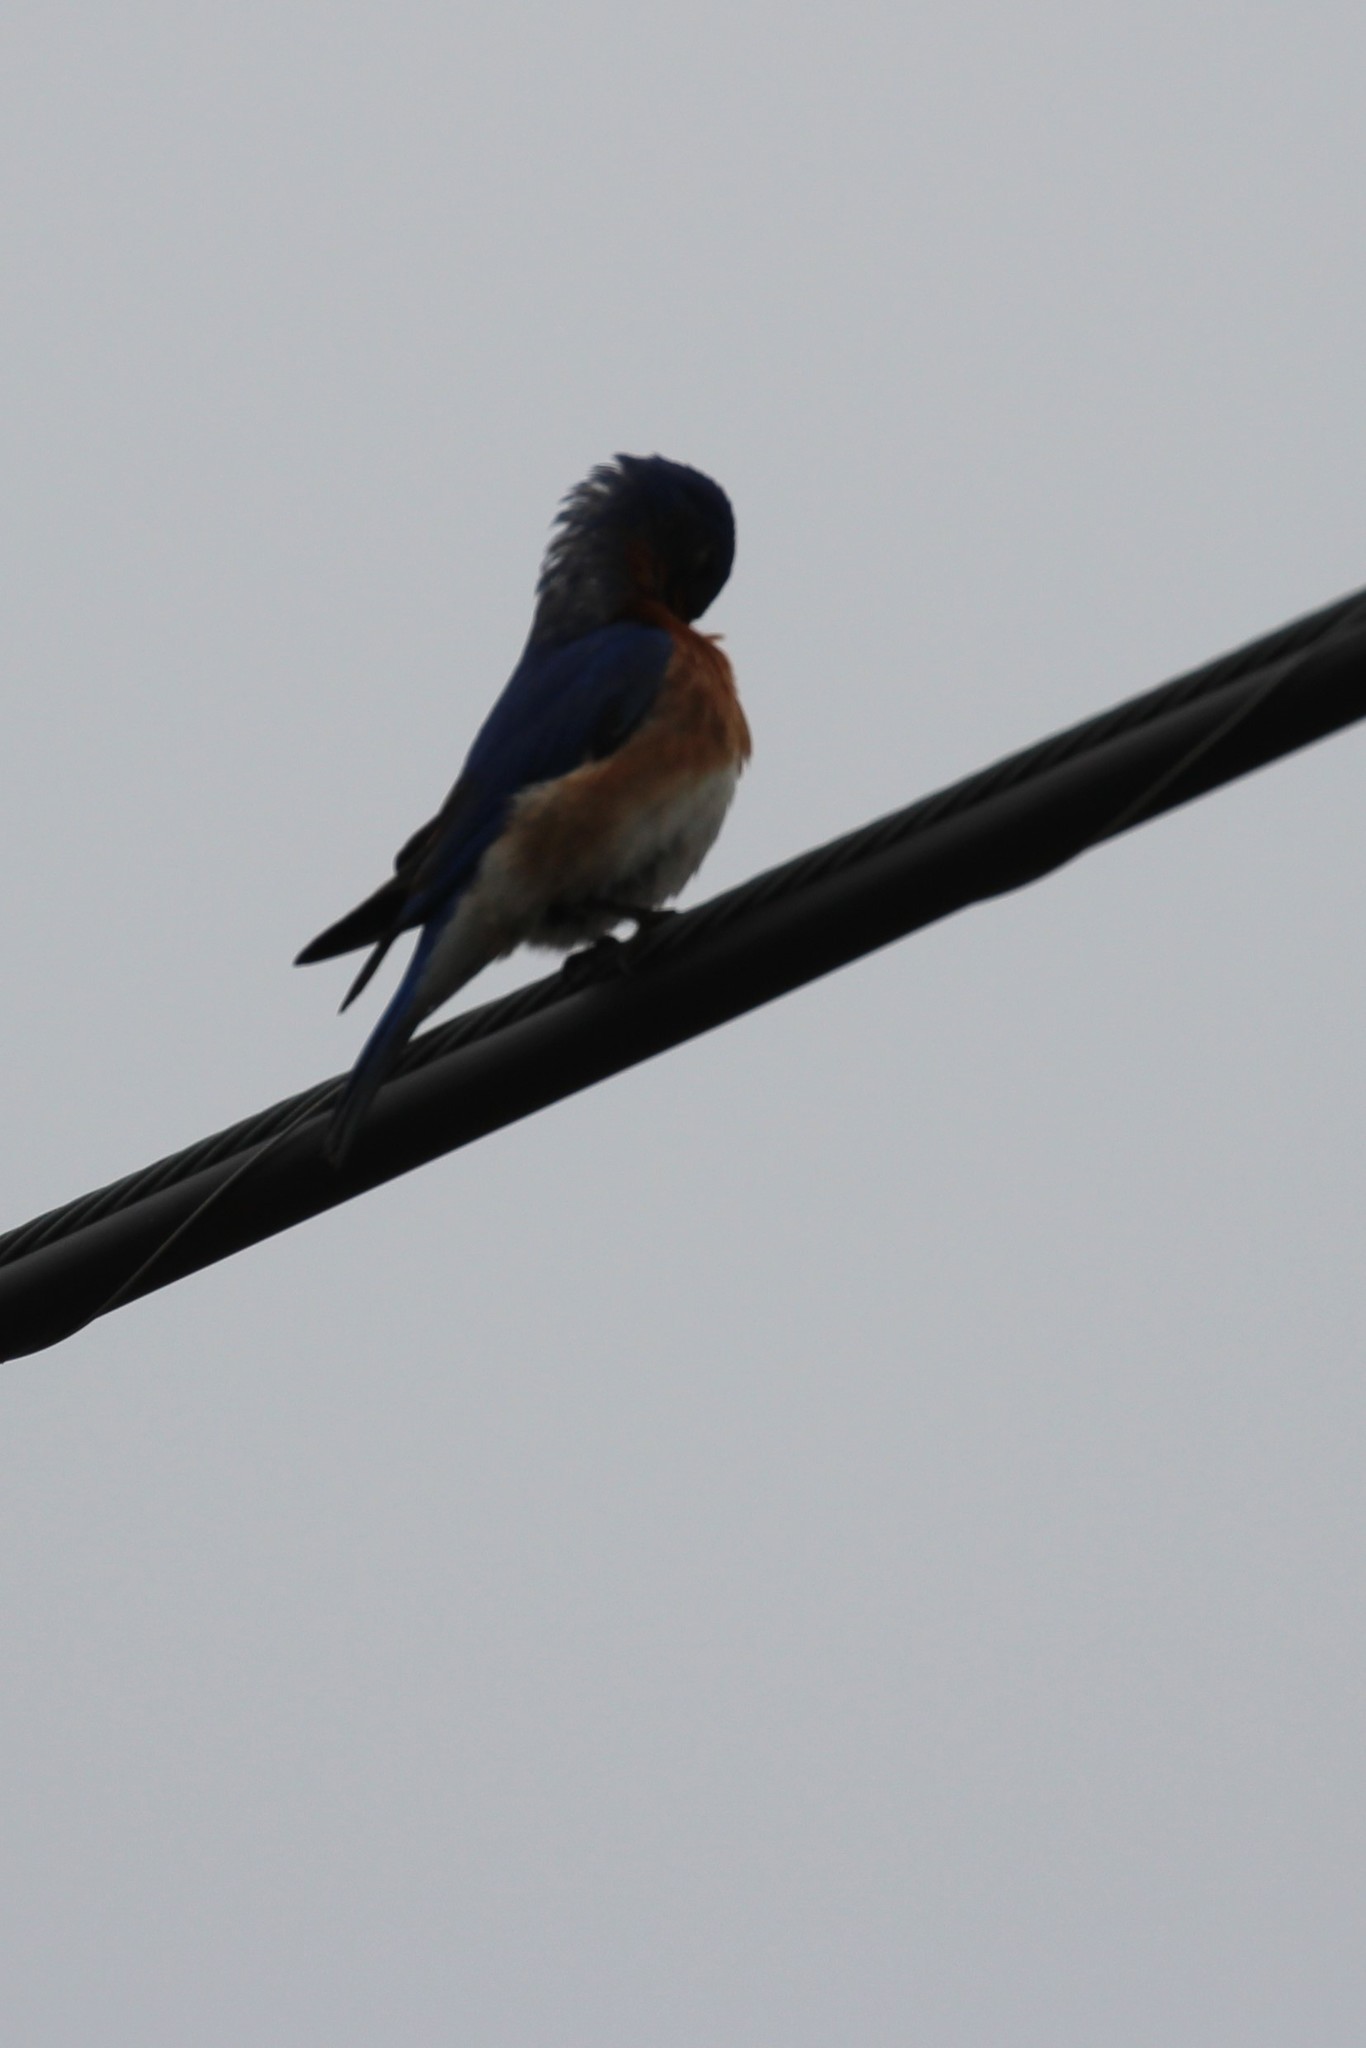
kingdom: Animalia
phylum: Chordata
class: Aves
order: Passeriformes
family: Turdidae
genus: Sialia
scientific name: Sialia sialis
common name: Eastern bluebird
